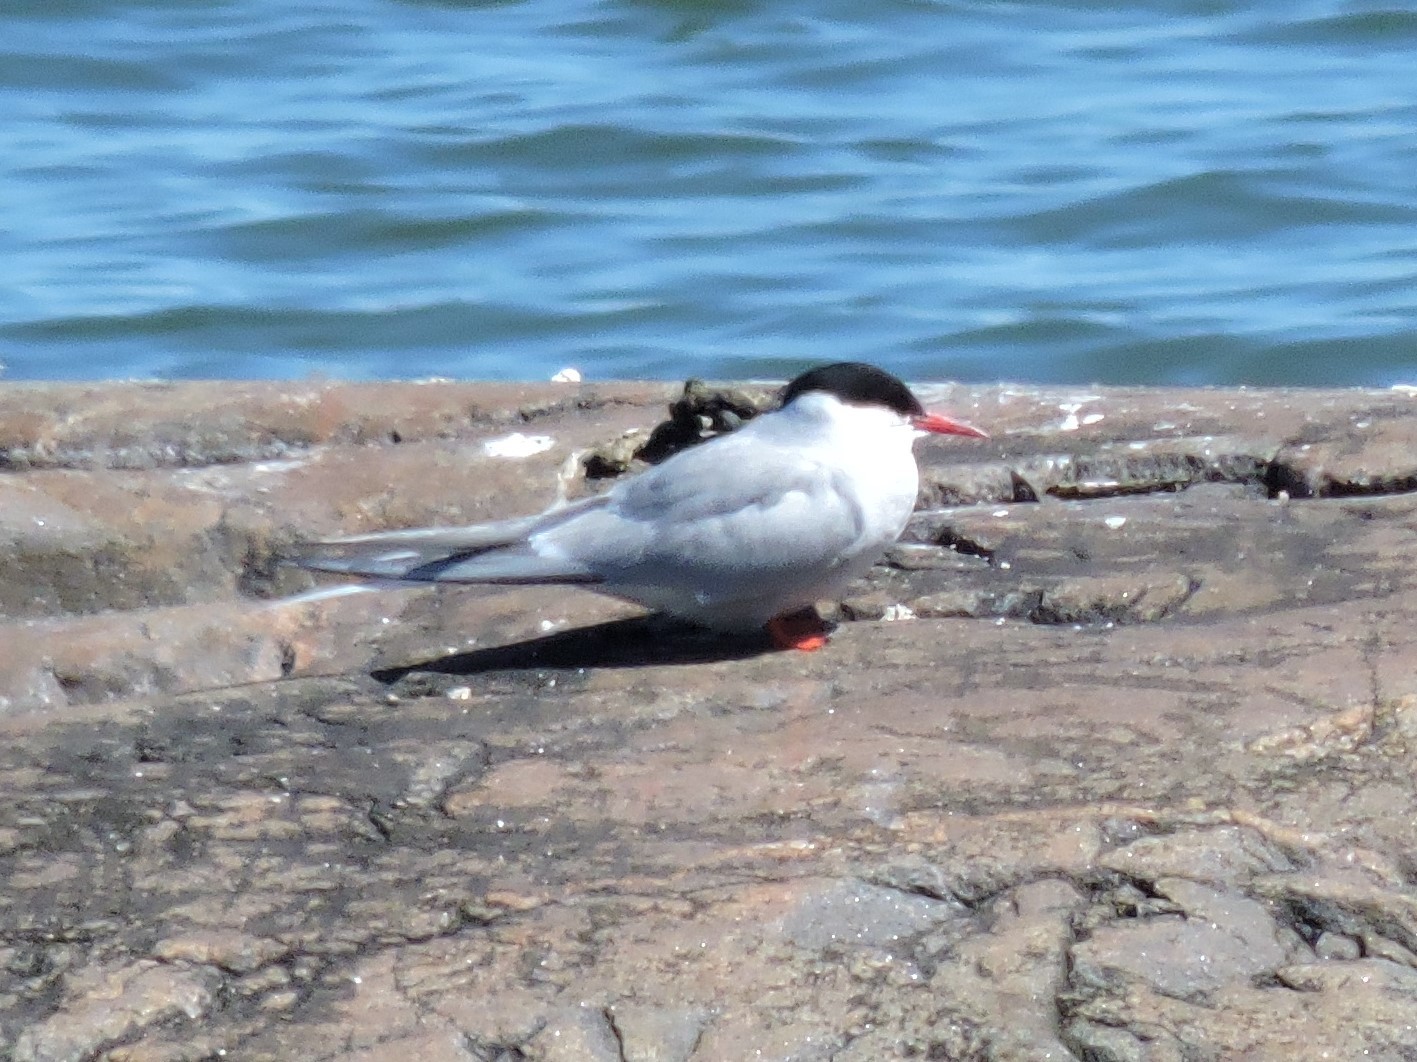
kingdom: Animalia
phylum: Chordata
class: Aves
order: Charadriiformes
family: Laridae
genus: Sterna
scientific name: Sterna paradisaea
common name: Arctic tern
